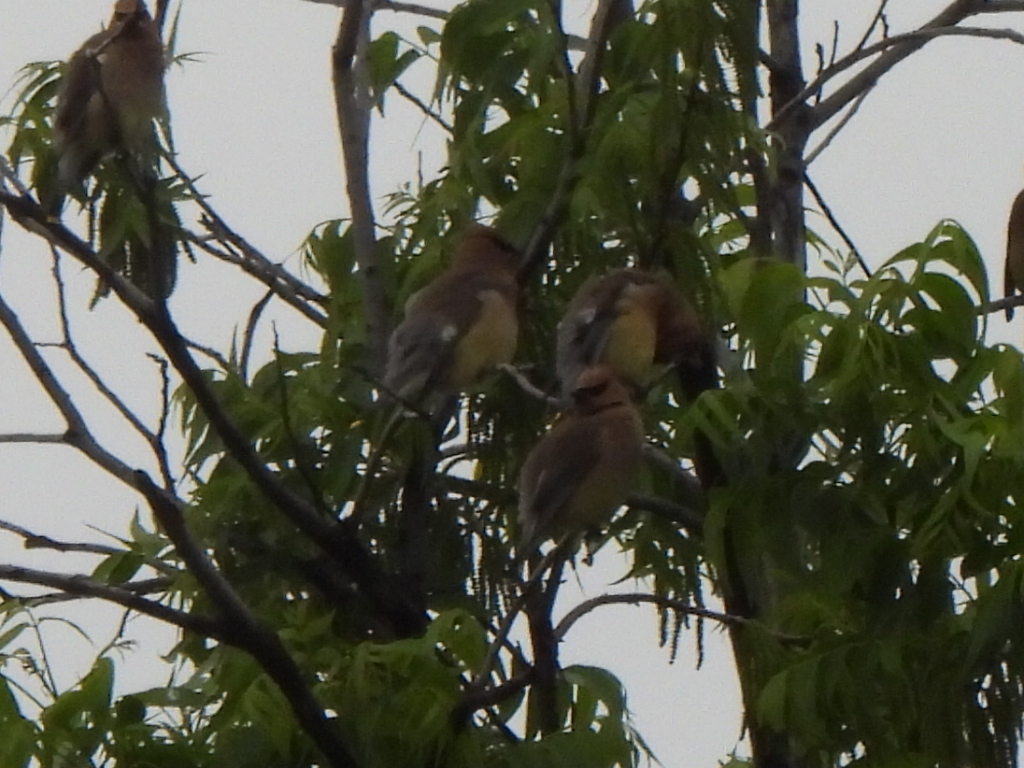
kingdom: Animalia
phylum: Chordata
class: Aves
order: Passeriformes
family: Bombycillidae
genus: Bombycilla
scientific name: Bombycilla cedrorum
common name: Cedar waxwing
